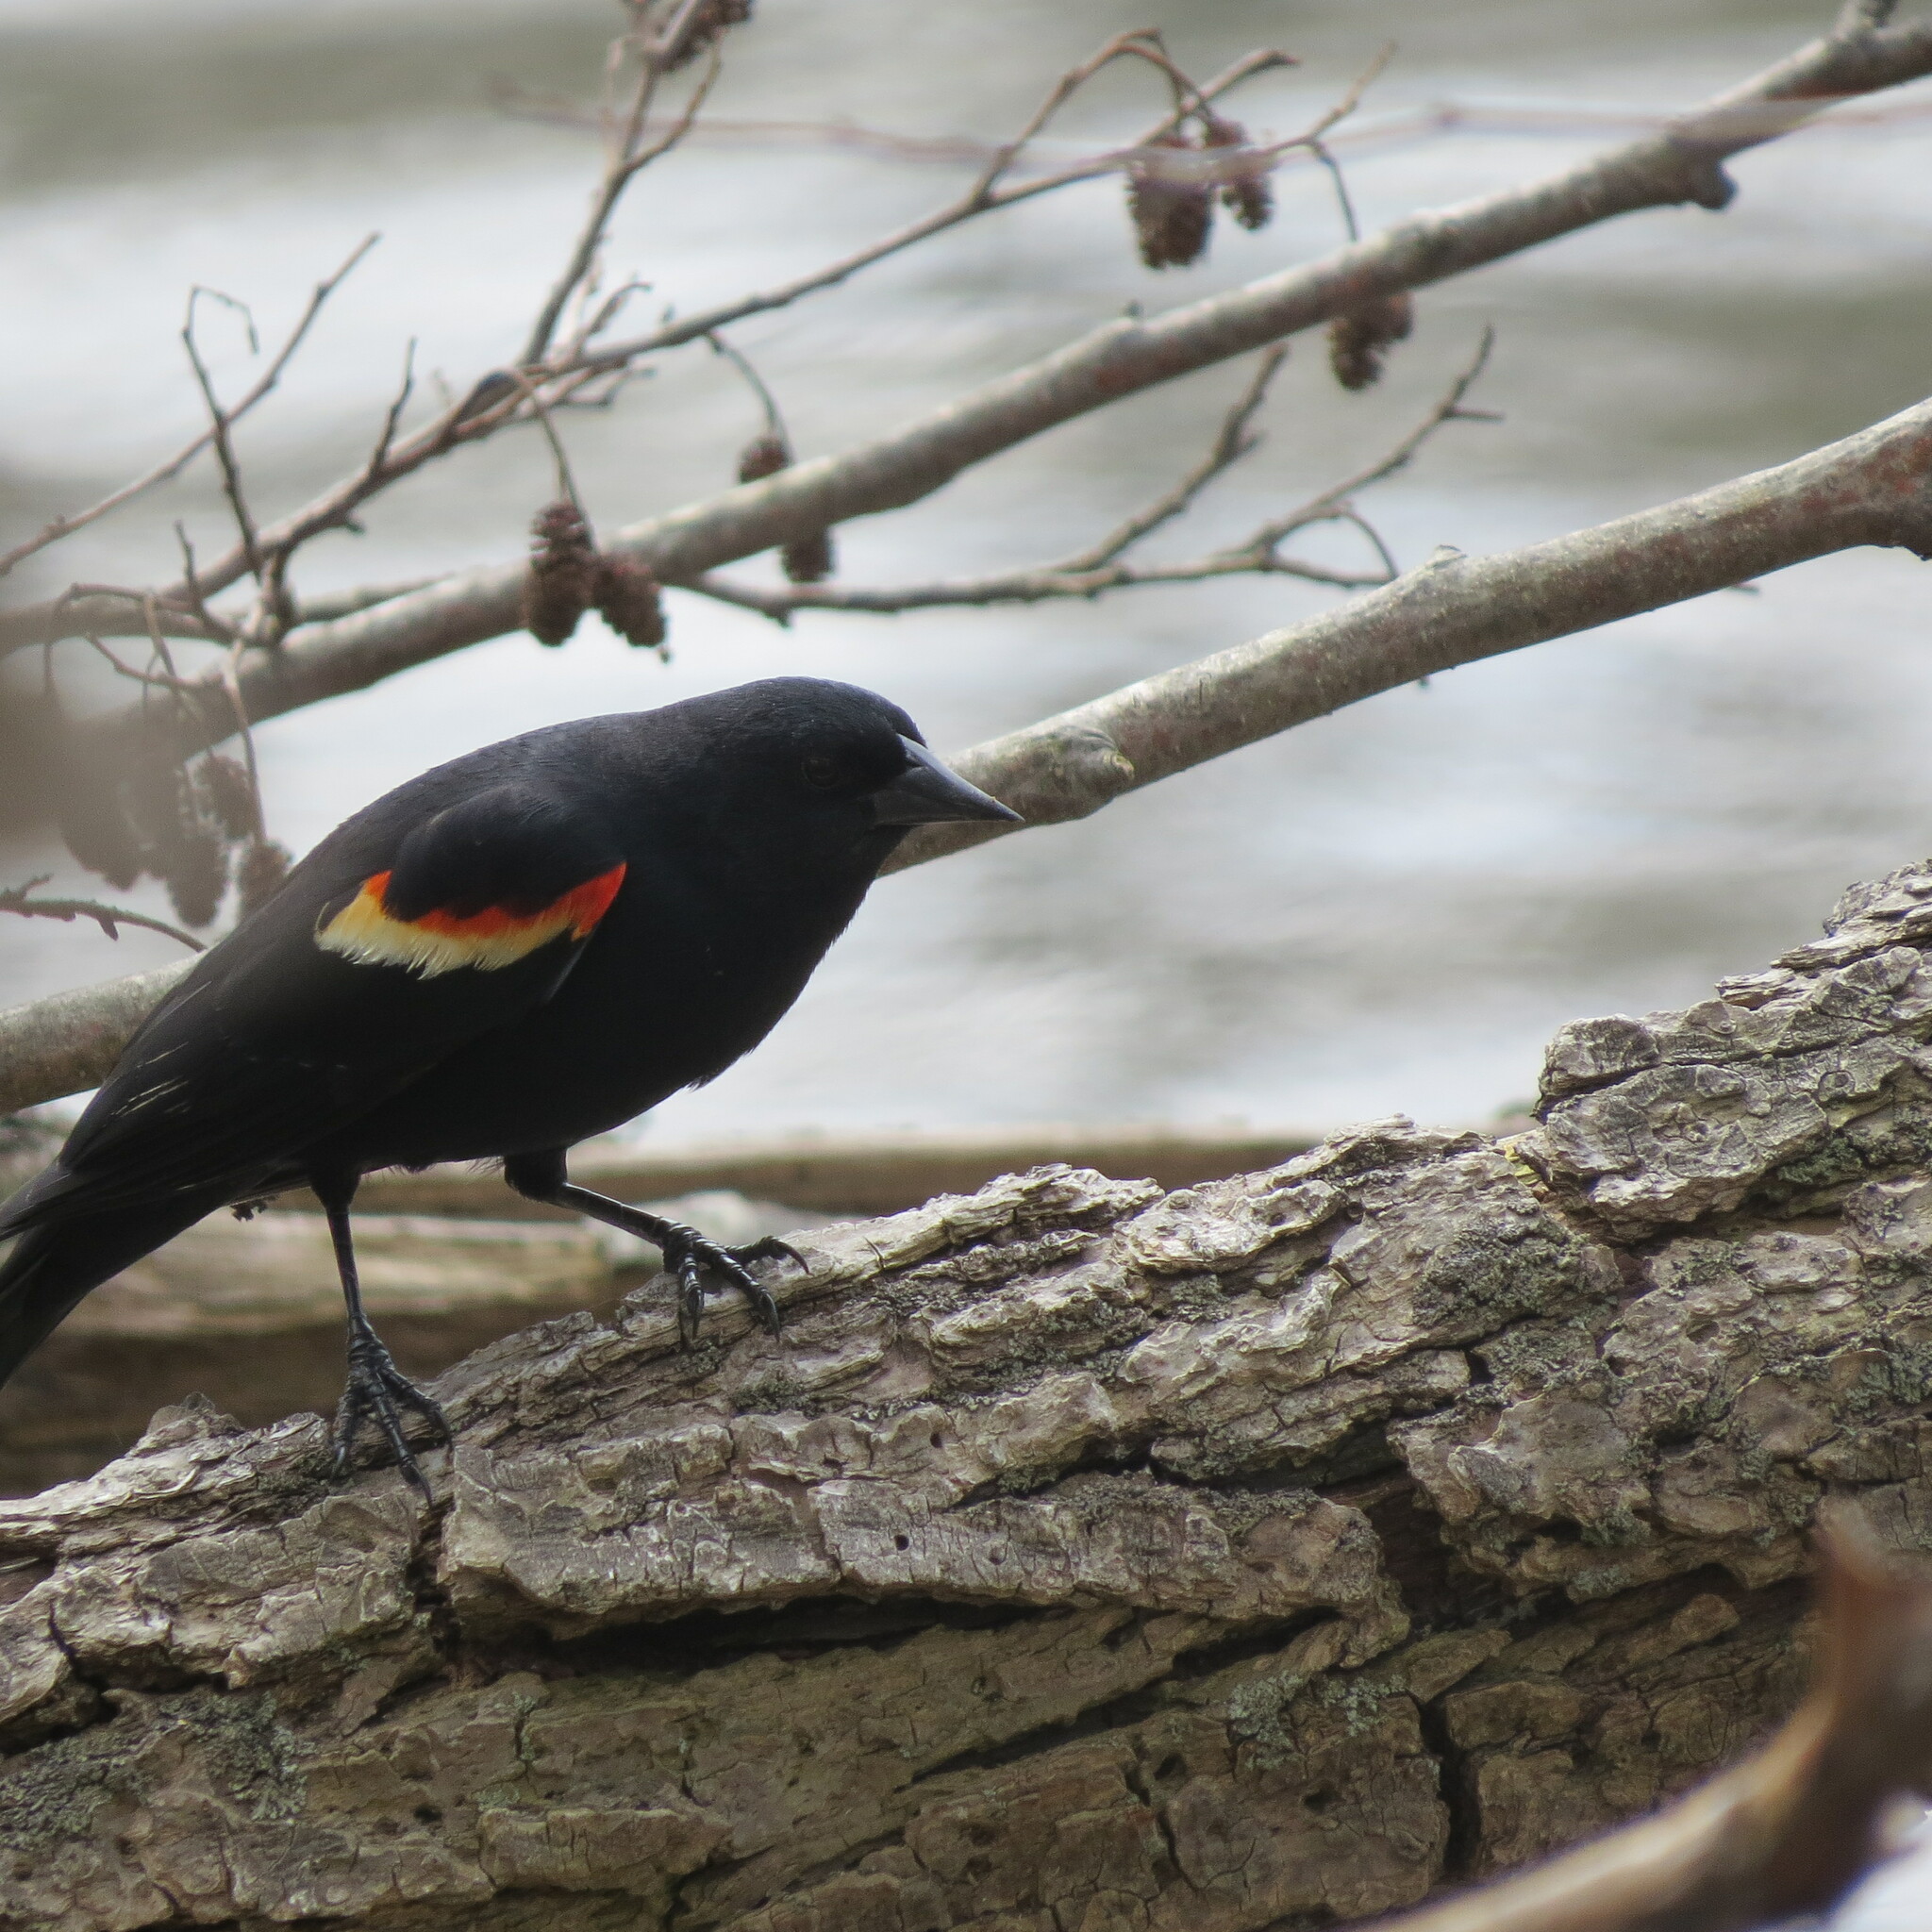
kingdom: Animalia
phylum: Chordata
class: Aves
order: Passeriformes
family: Icteridae
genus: Agelaius
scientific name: Agelaius phoeniceus
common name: Red-winged blackbird
